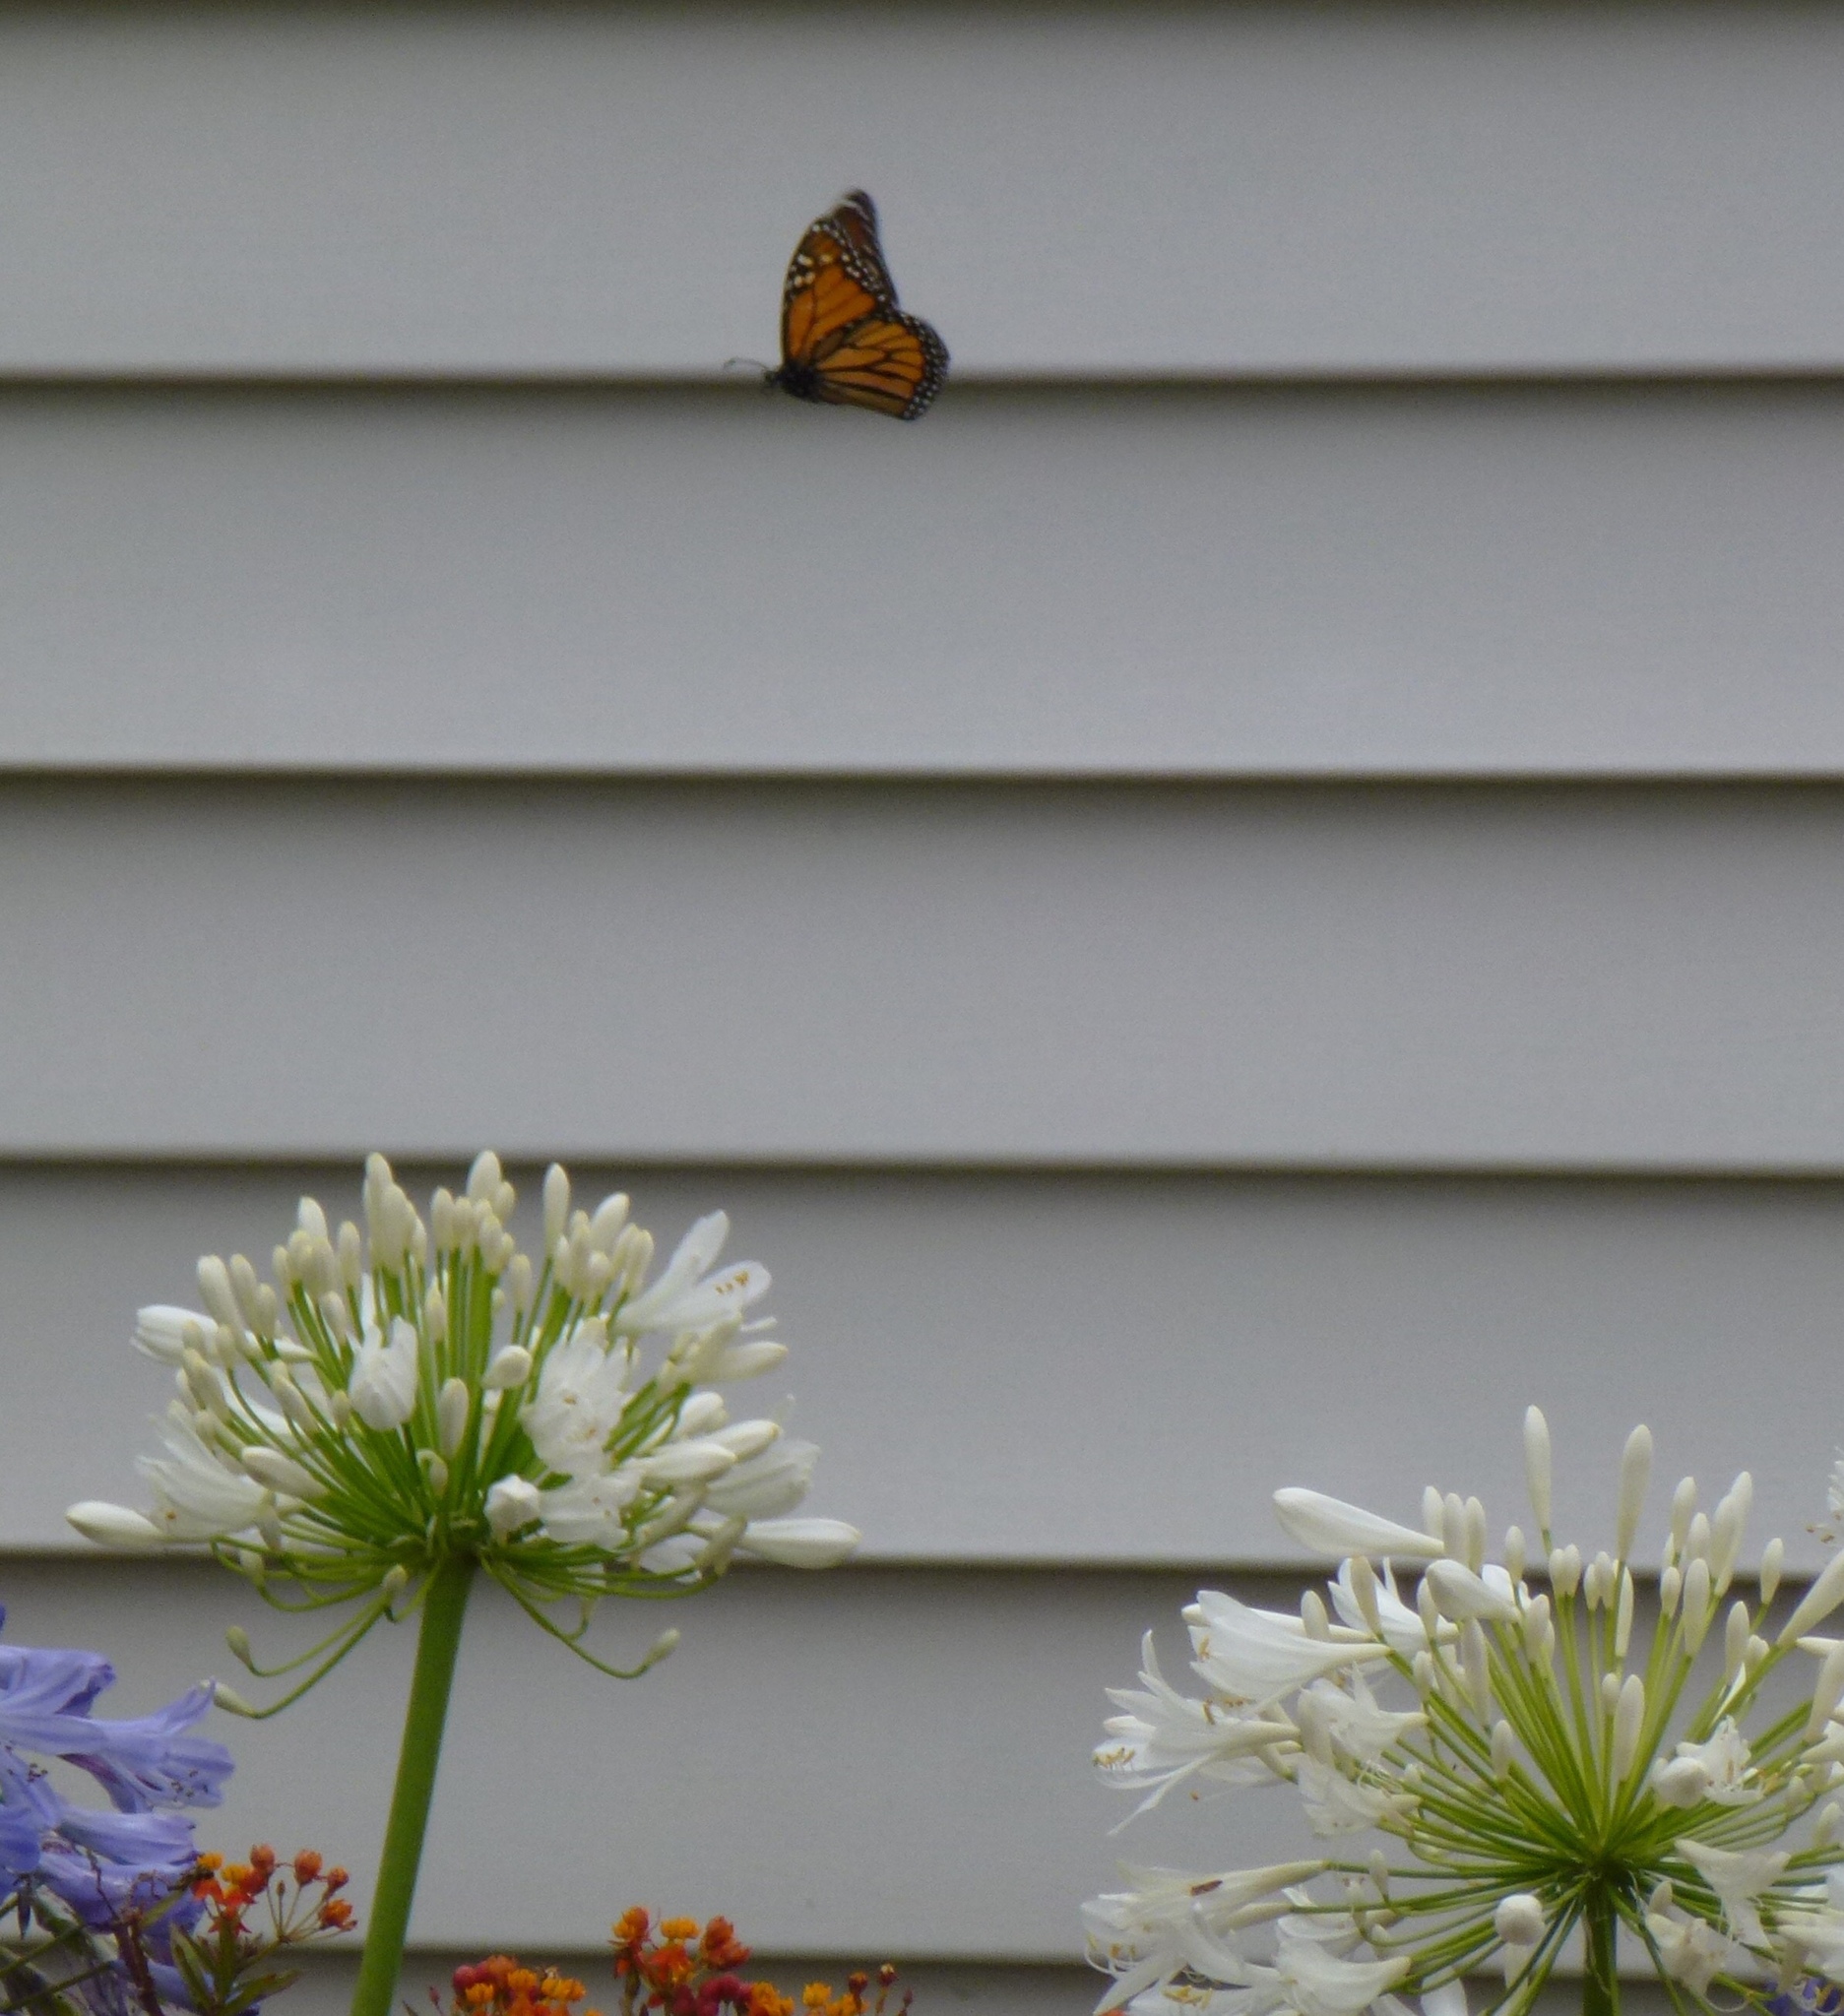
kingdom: Animalia
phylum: Arthropoda
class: Insecta
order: Lepidoptera
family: Nymphalidae
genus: Danaus
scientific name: Danaus plexippus
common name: Monarch
